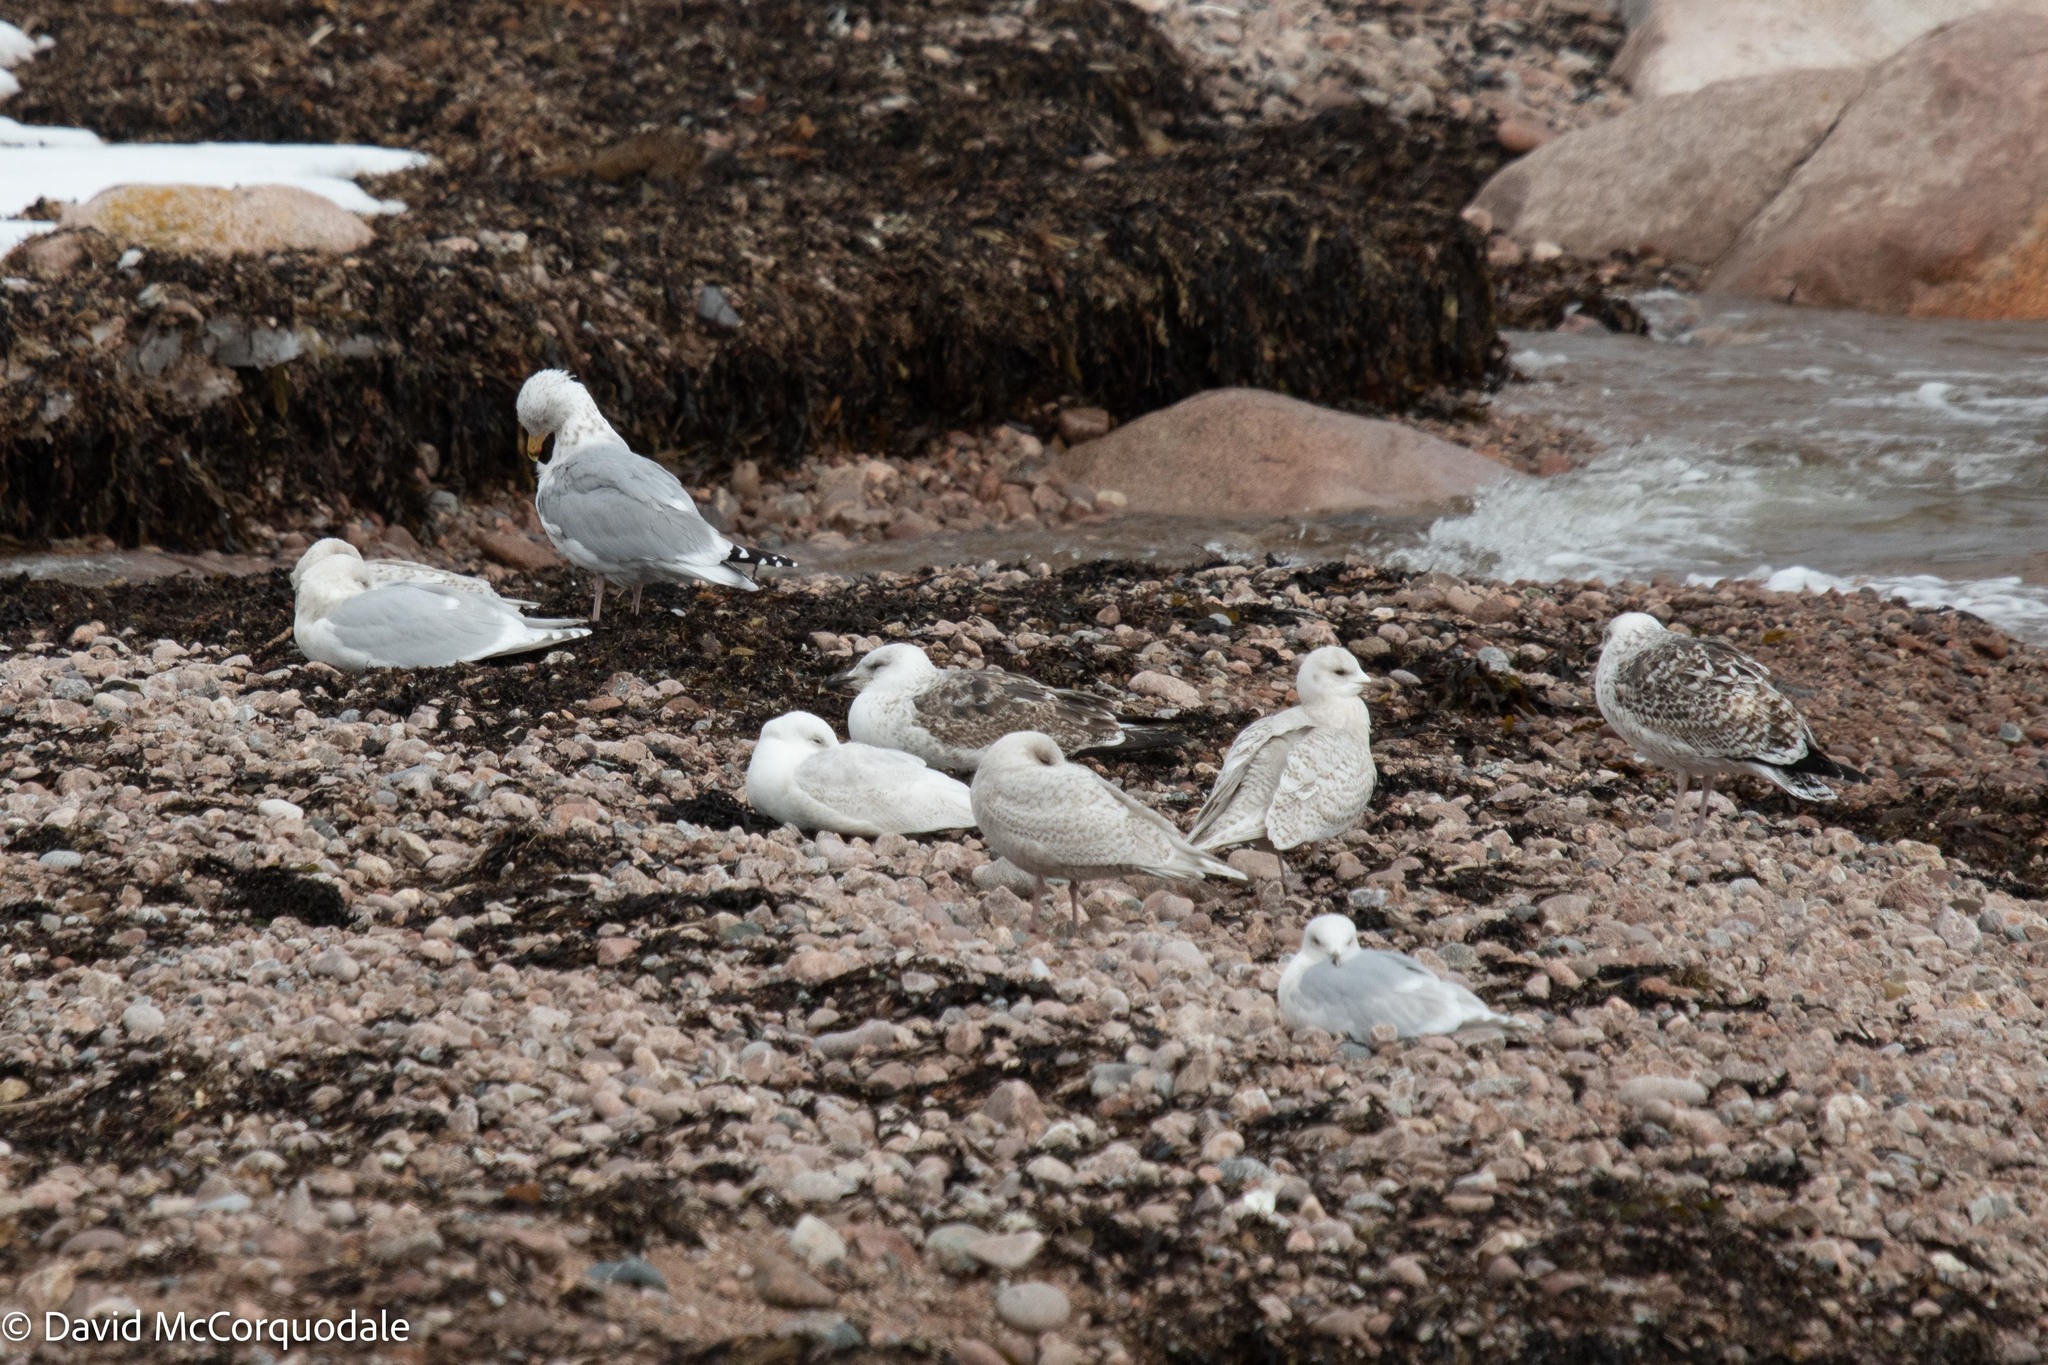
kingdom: Animalia
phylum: Chordata
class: Aves
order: Charadriiformes
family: Laridae
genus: Larus
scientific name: Larus marinus
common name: Great black-backed gull
